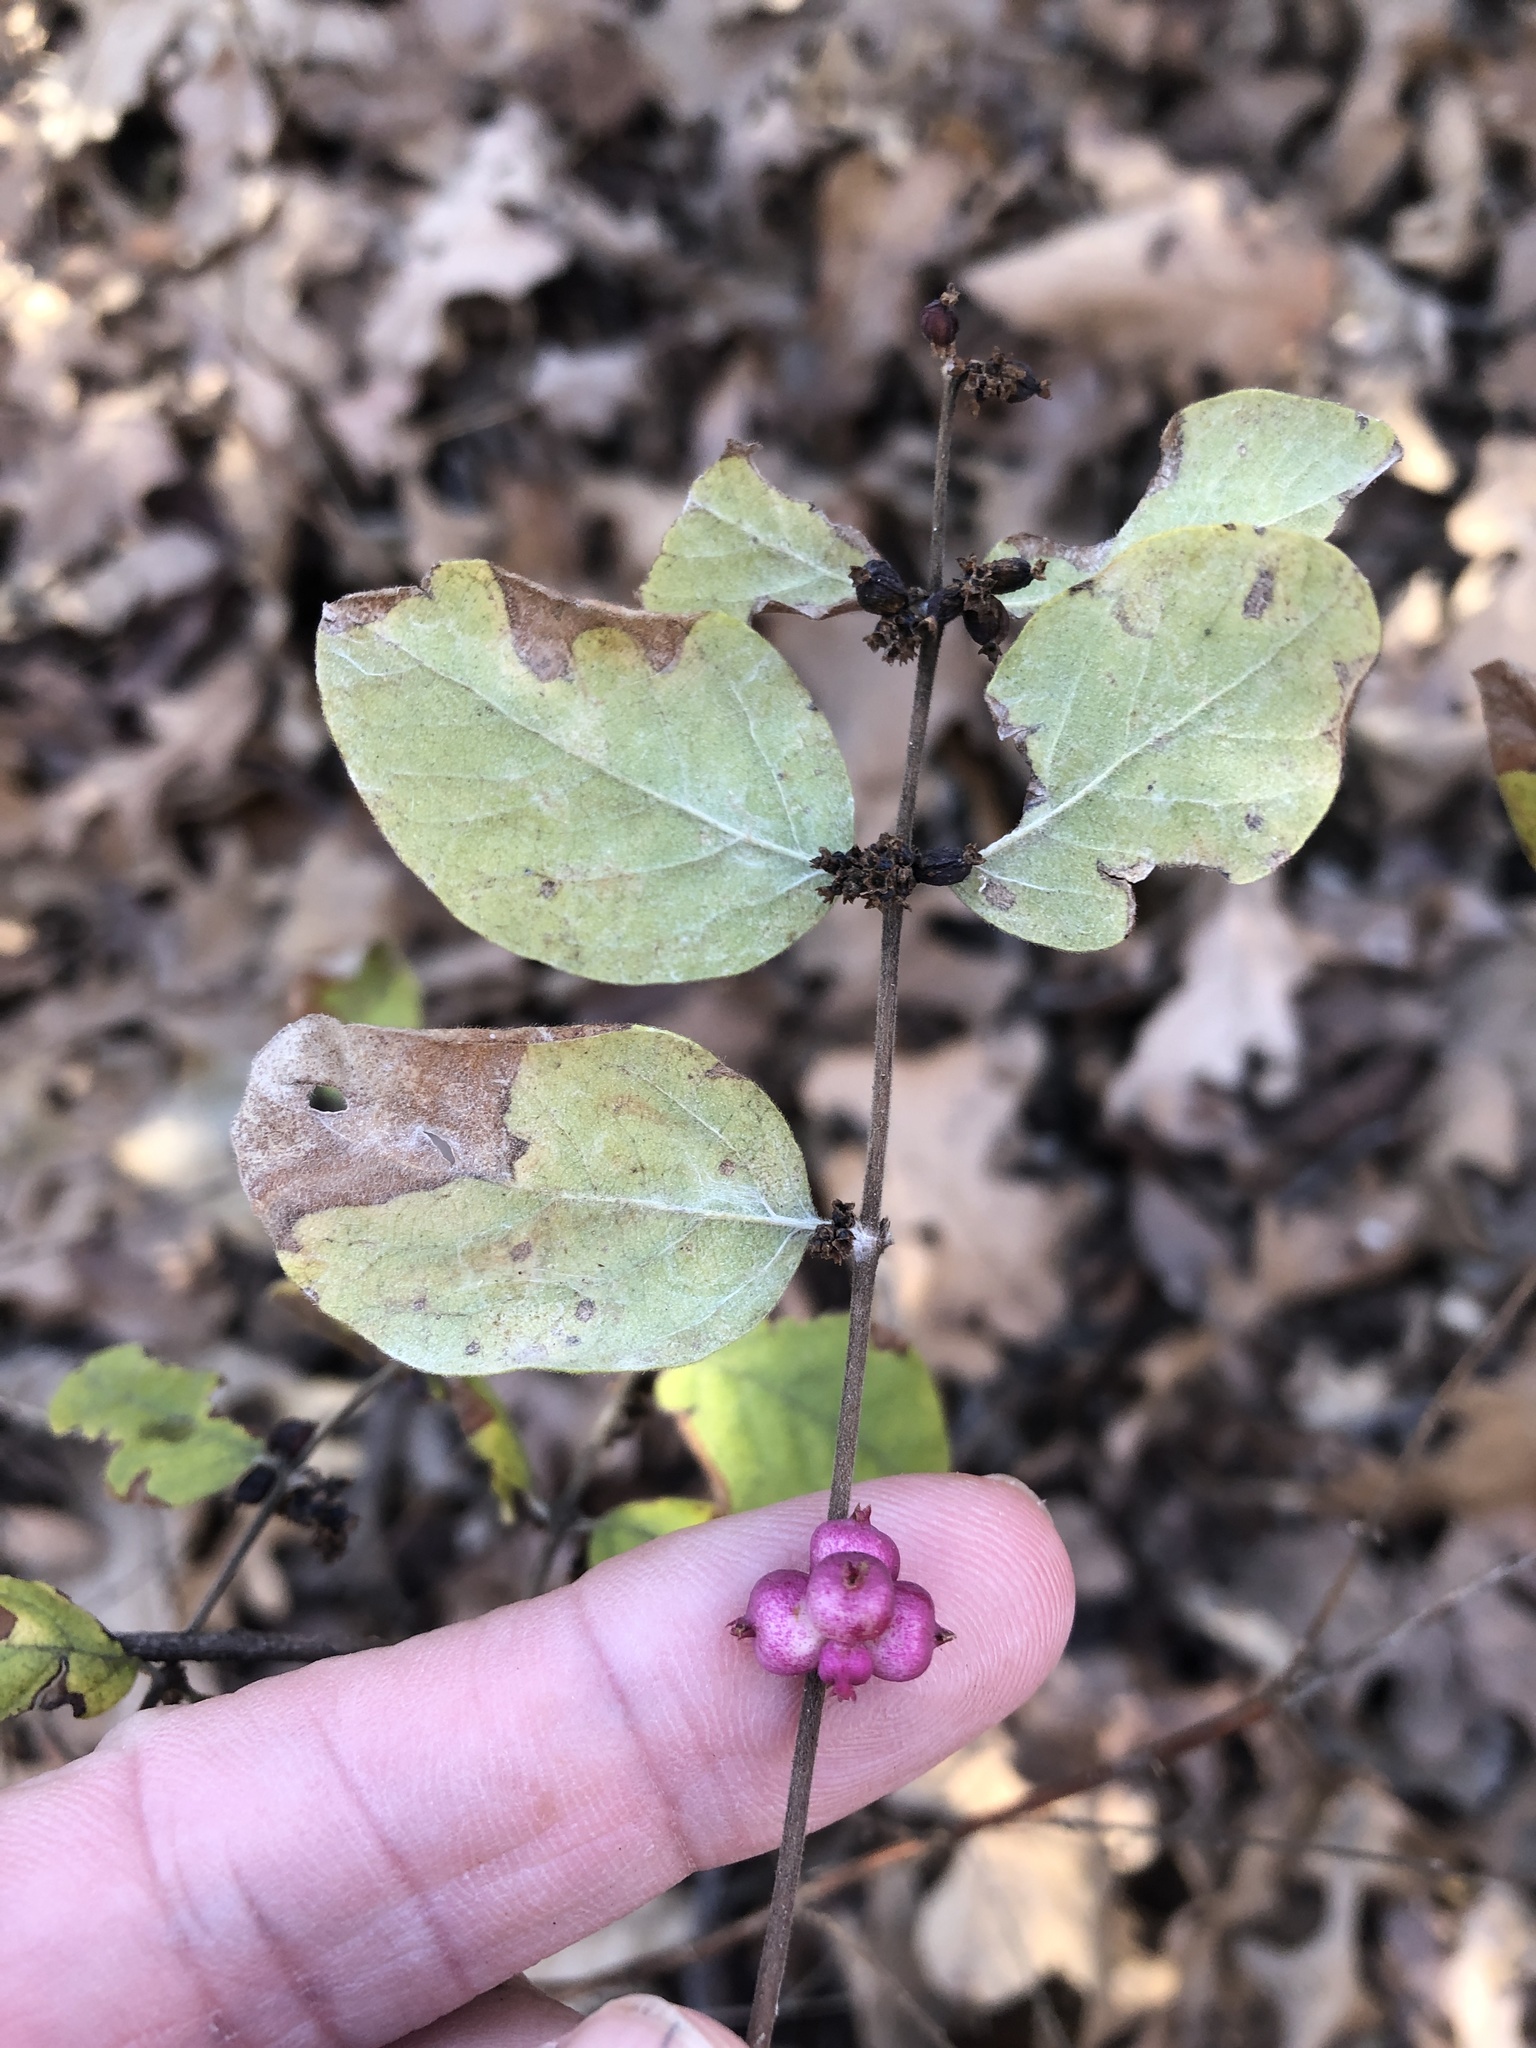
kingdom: Plantae
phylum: Tracheophyta
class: Magnoliopsida
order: Dipsacales
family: Caprifoliaceae
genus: Symphoricarpos
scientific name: Symphoricarpos orbiculatus
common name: Coralberry
